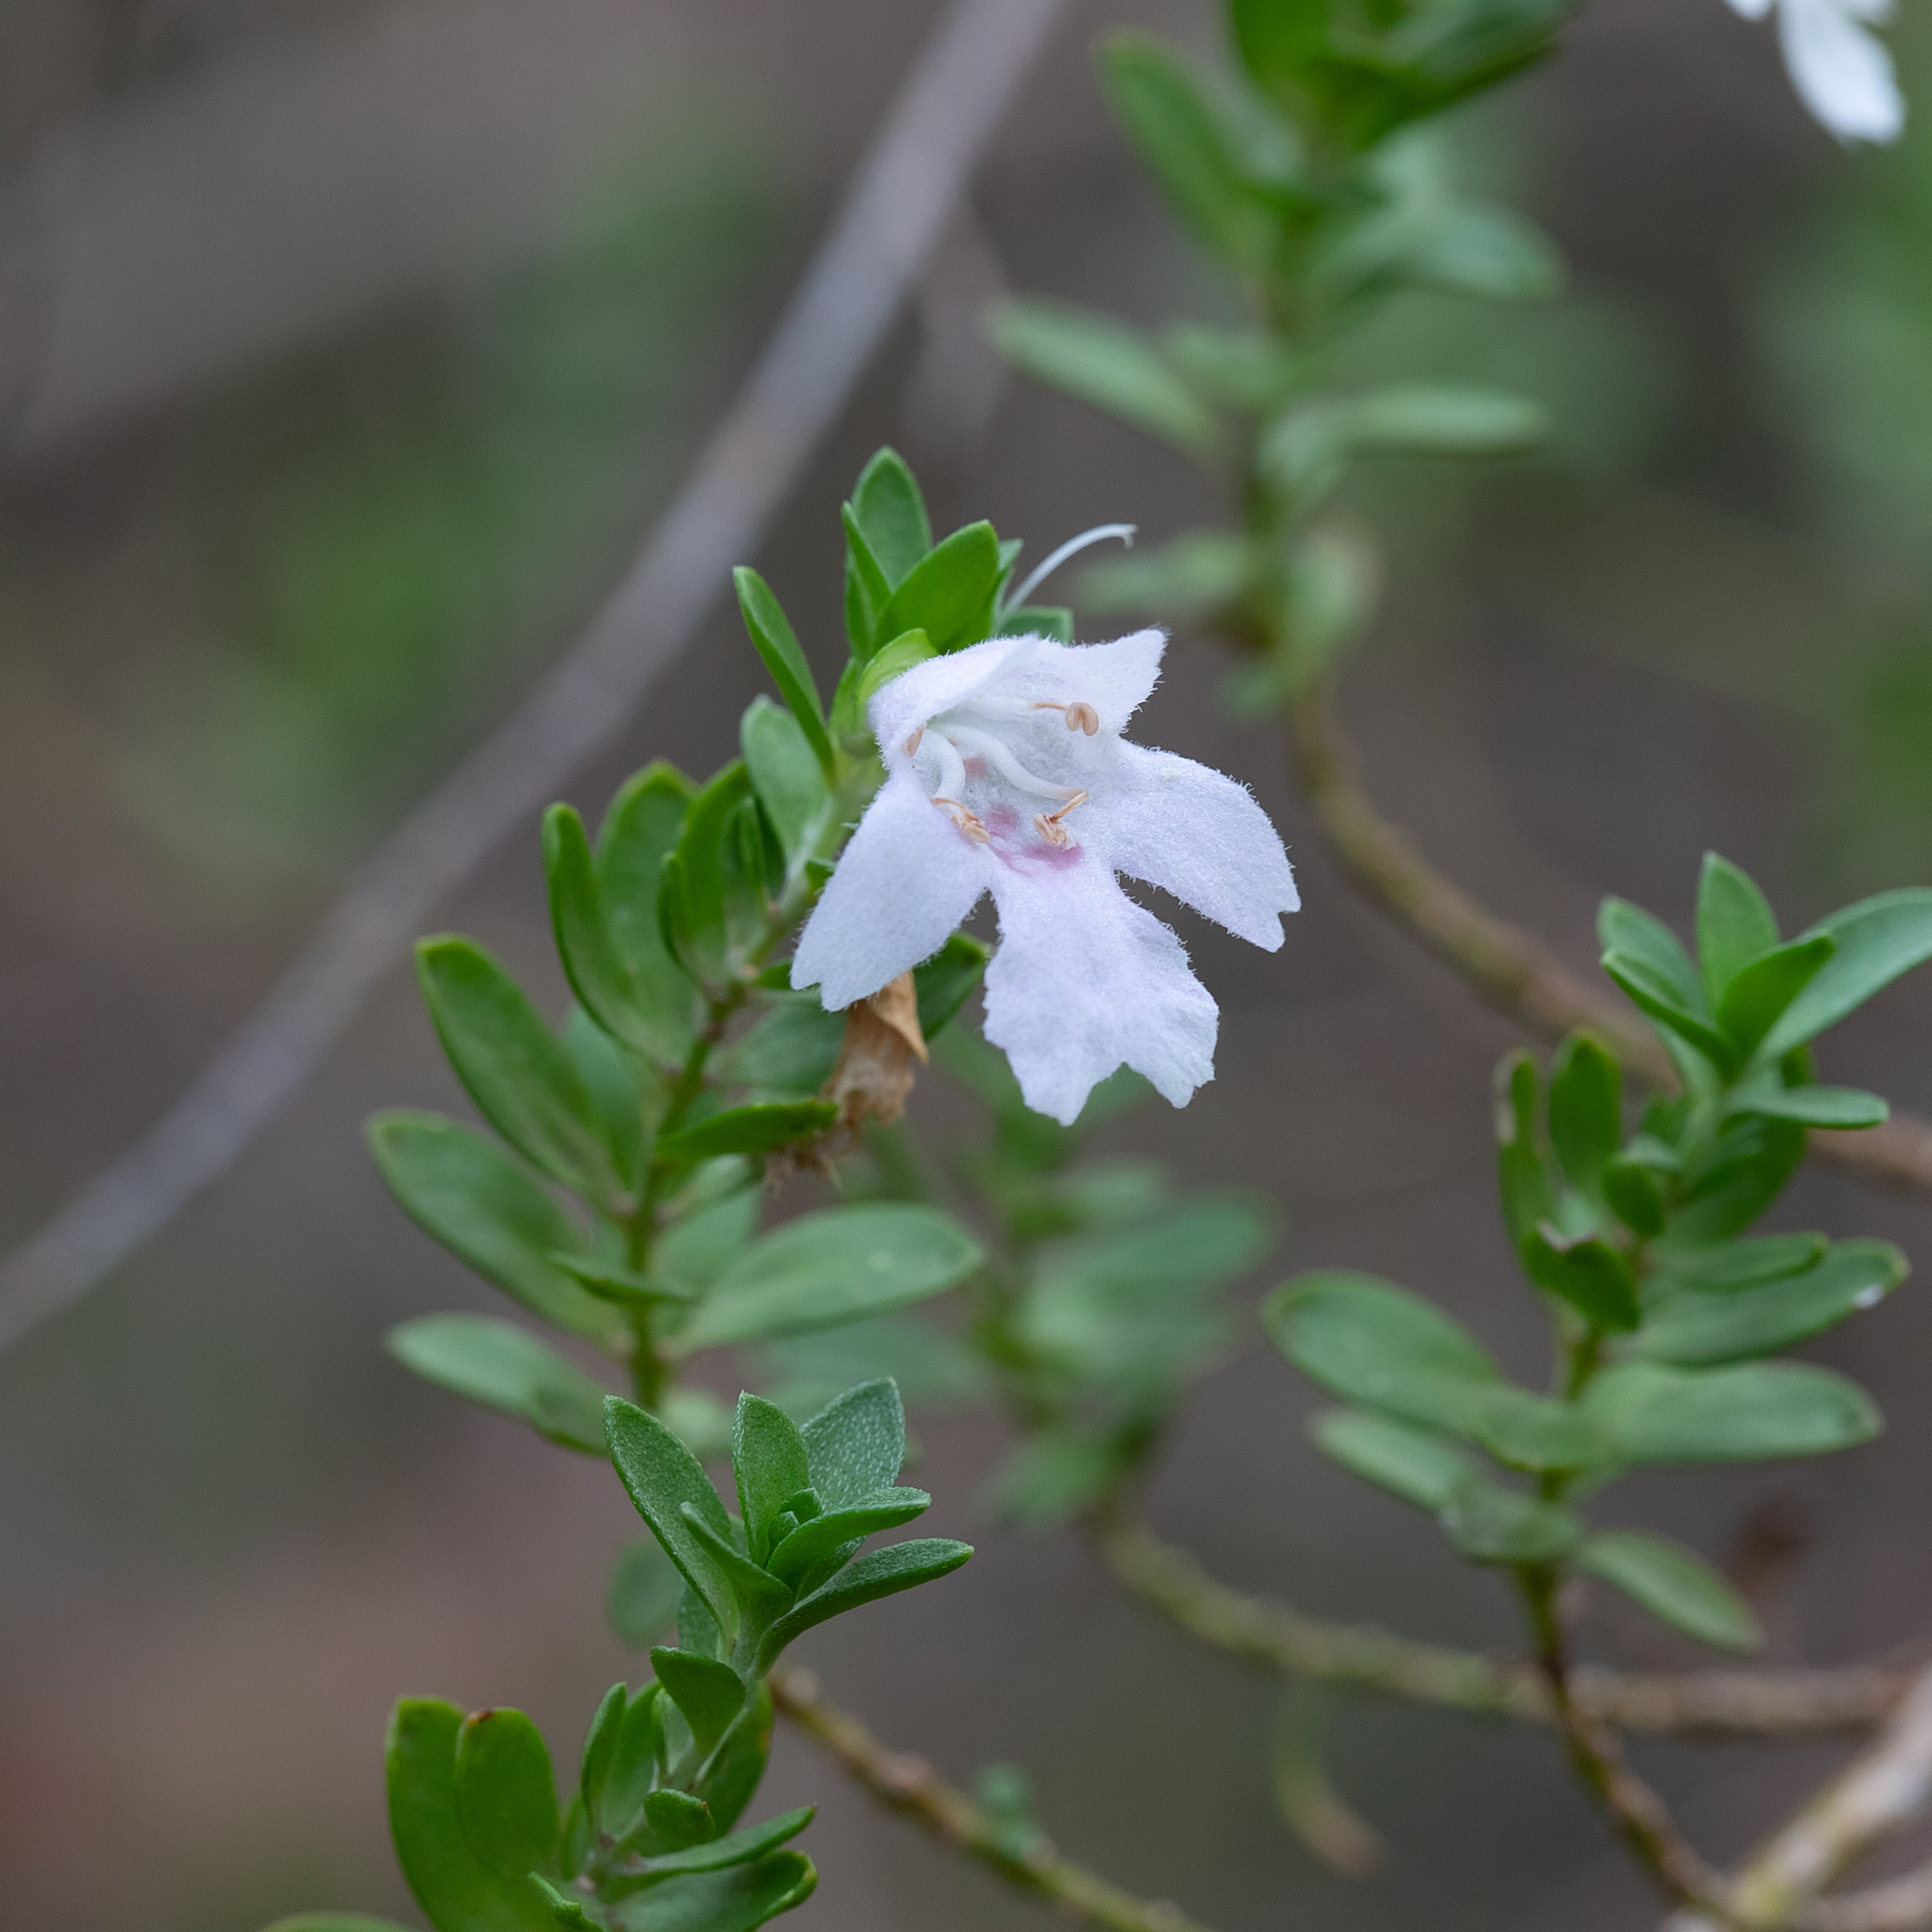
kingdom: Plantae
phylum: Tracheophyta
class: Magnoliopsida
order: Lamiales
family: Lamiaceae
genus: Prostanthera
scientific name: Prostanthera behriana
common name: Downy mintbush
